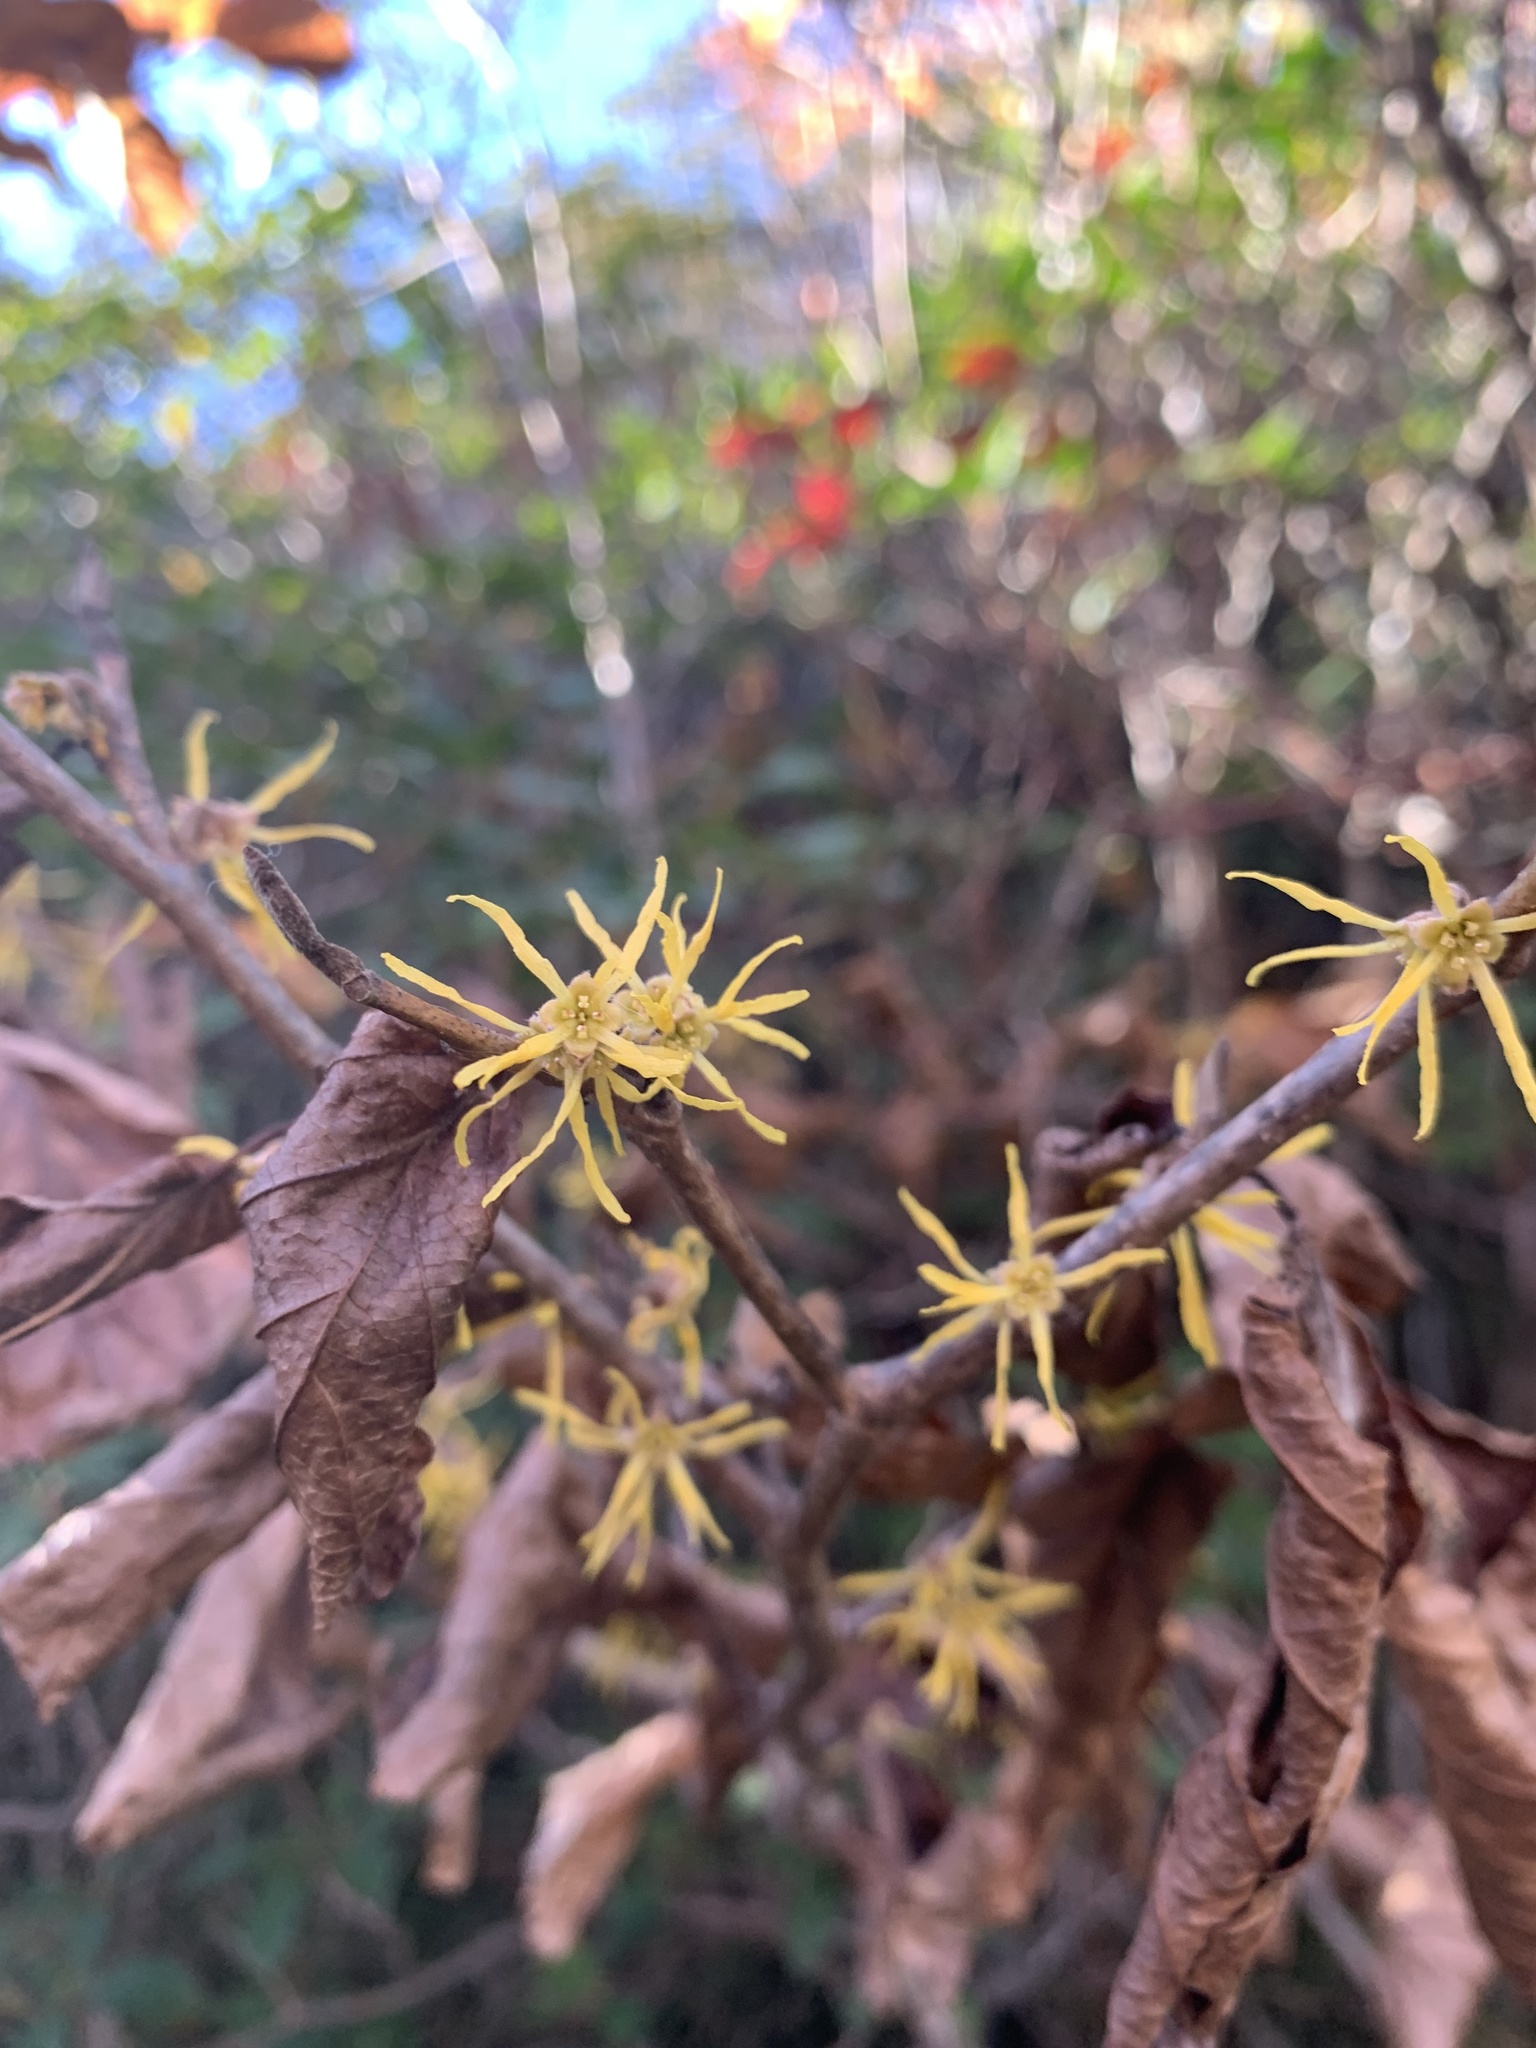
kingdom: Plantae
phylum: Tracheophyta
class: Magnoliopsida
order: Saxifragales
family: Hamamelidaceae
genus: Hamamelis
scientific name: Hamamelis virginiana
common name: Witch-hazel
